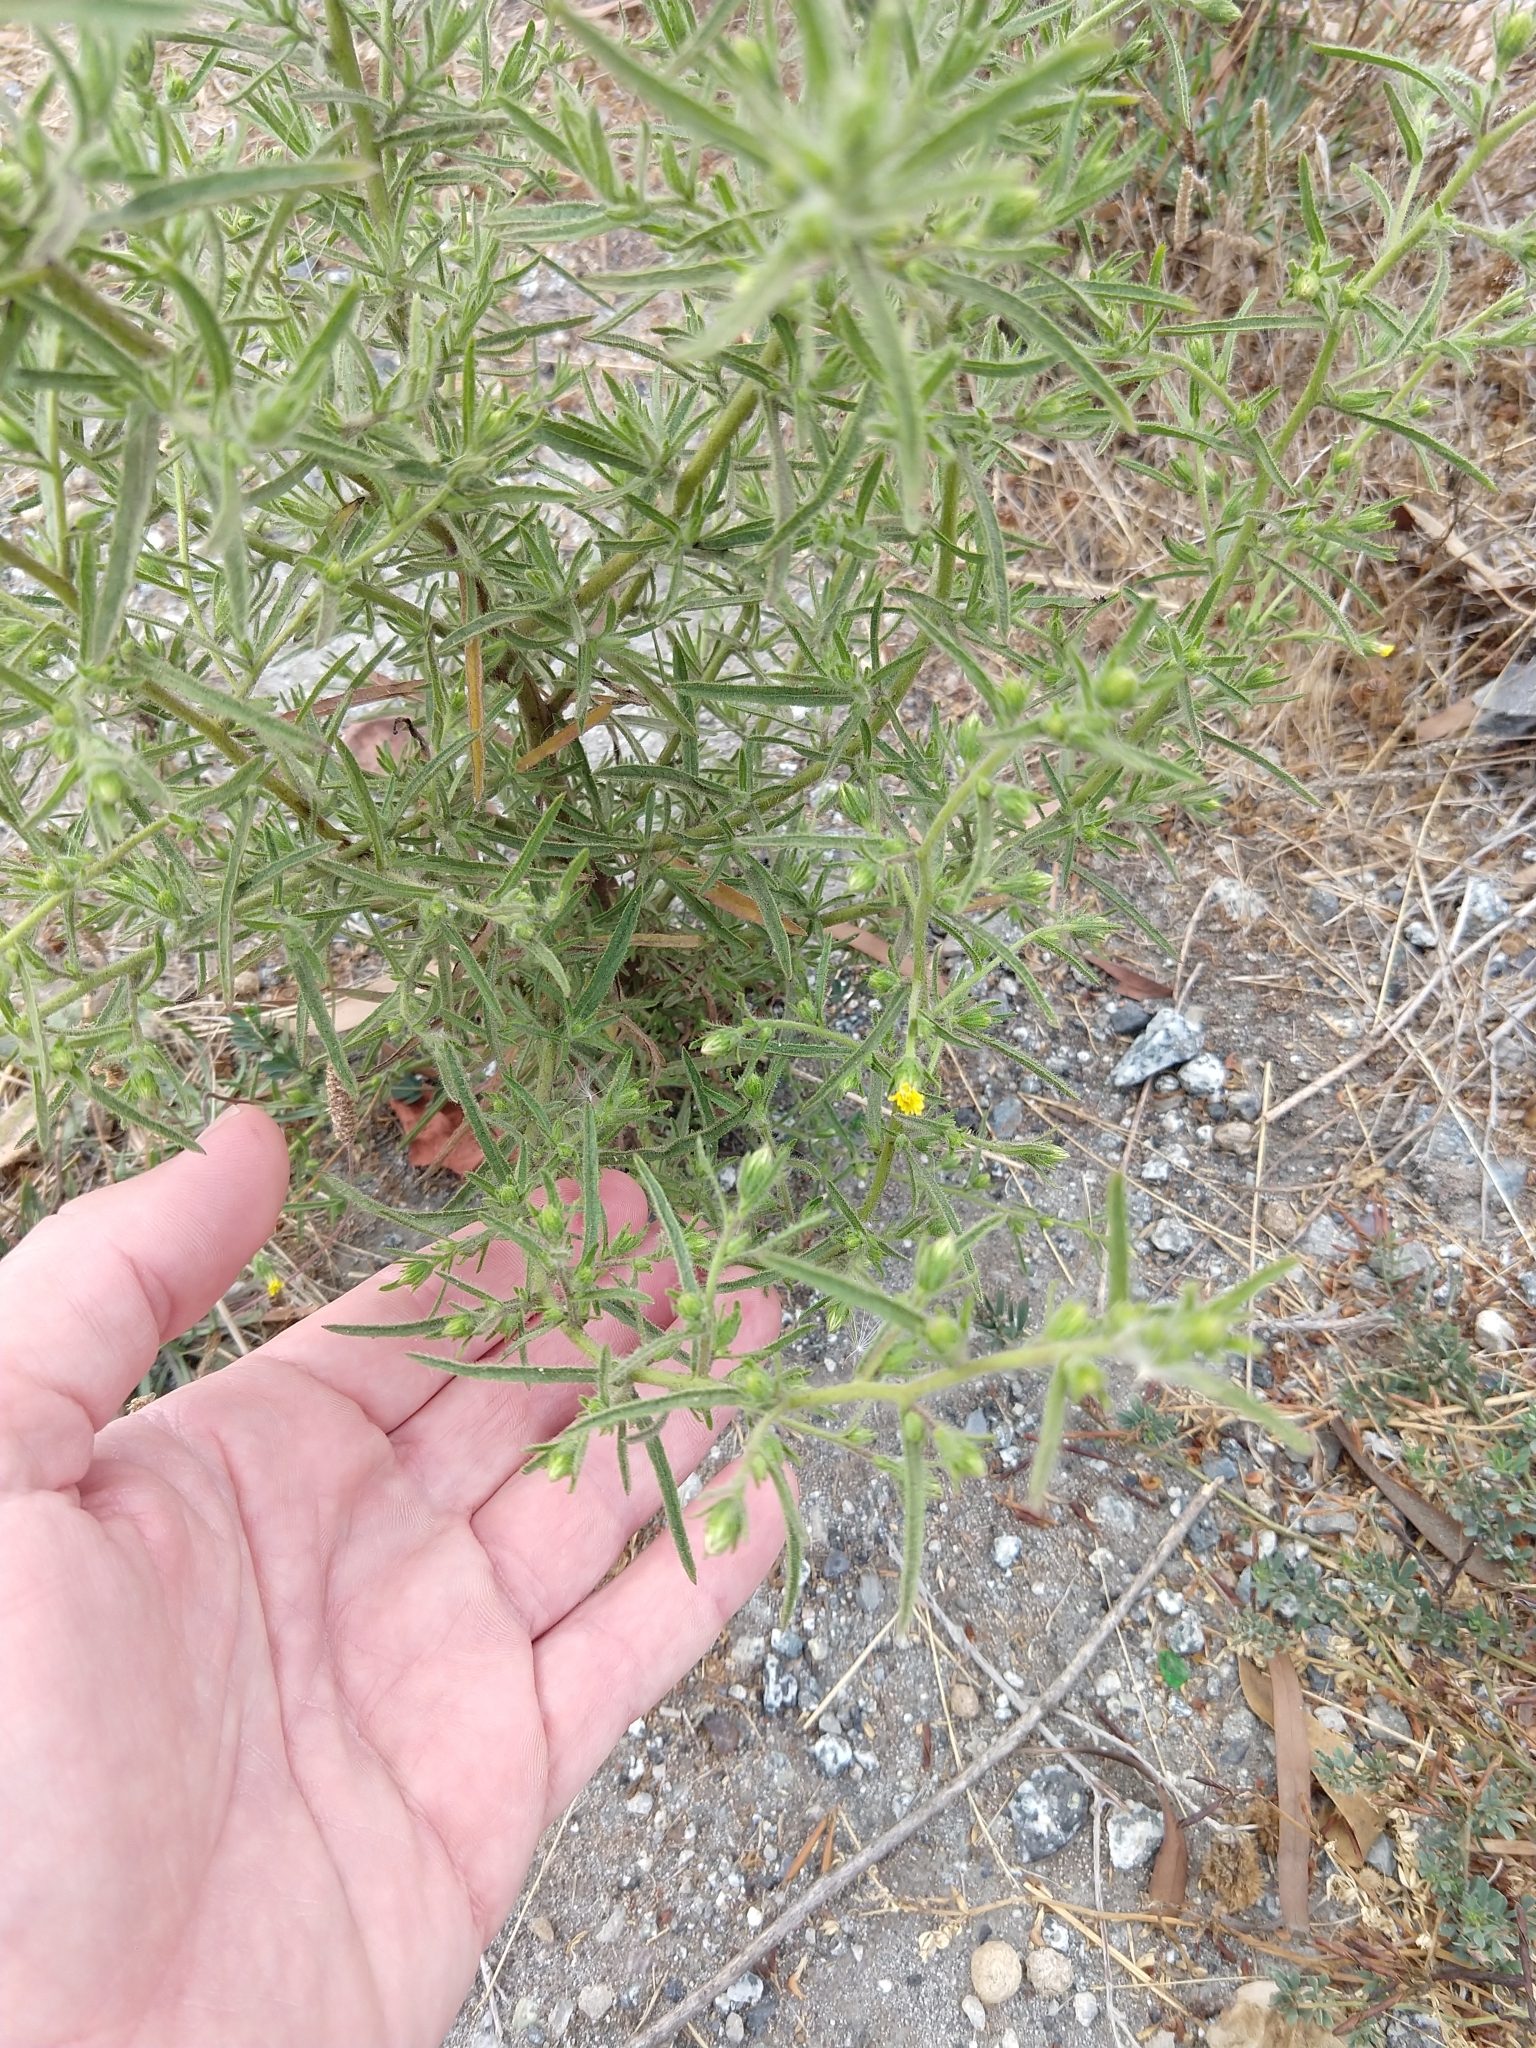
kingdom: Plantae
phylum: Tracheophyta
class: Magnoliopsida
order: Asterales
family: Asteraceae
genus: Dittrichia
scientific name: Dittrichia graveolens
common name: Stinking fleabane
